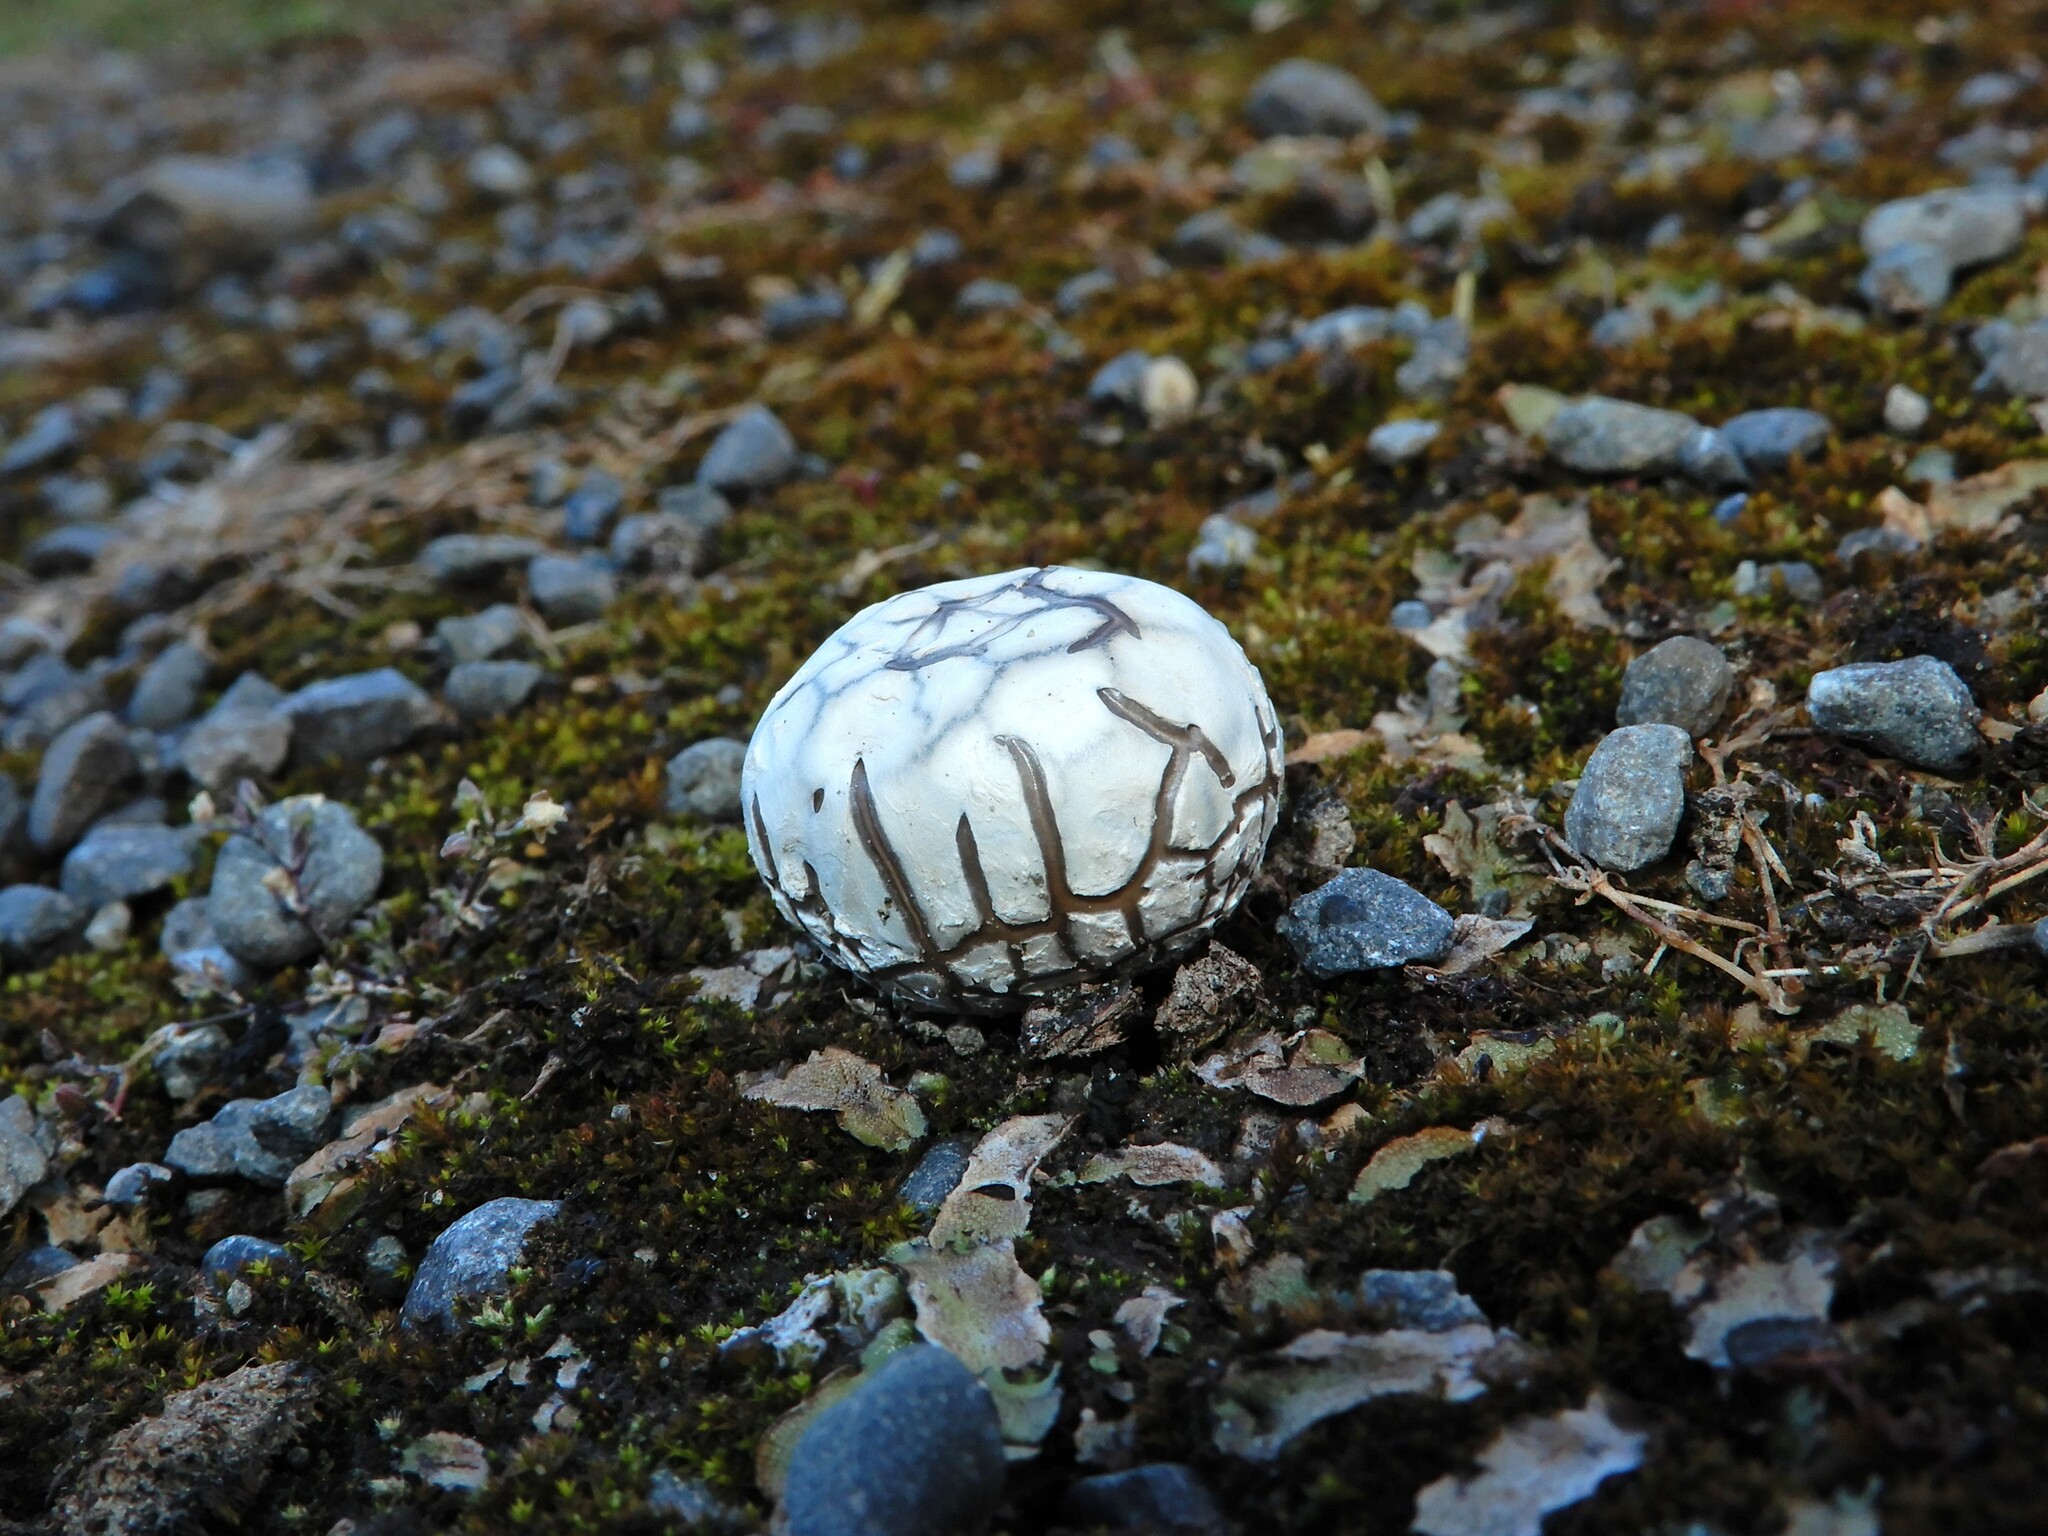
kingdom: Fungi
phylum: Basidiomycota
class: Agaricomycetes
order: Agaricales
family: Lycoperdaceae
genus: Bovista
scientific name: Bovista plumbea
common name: Grey puffball
